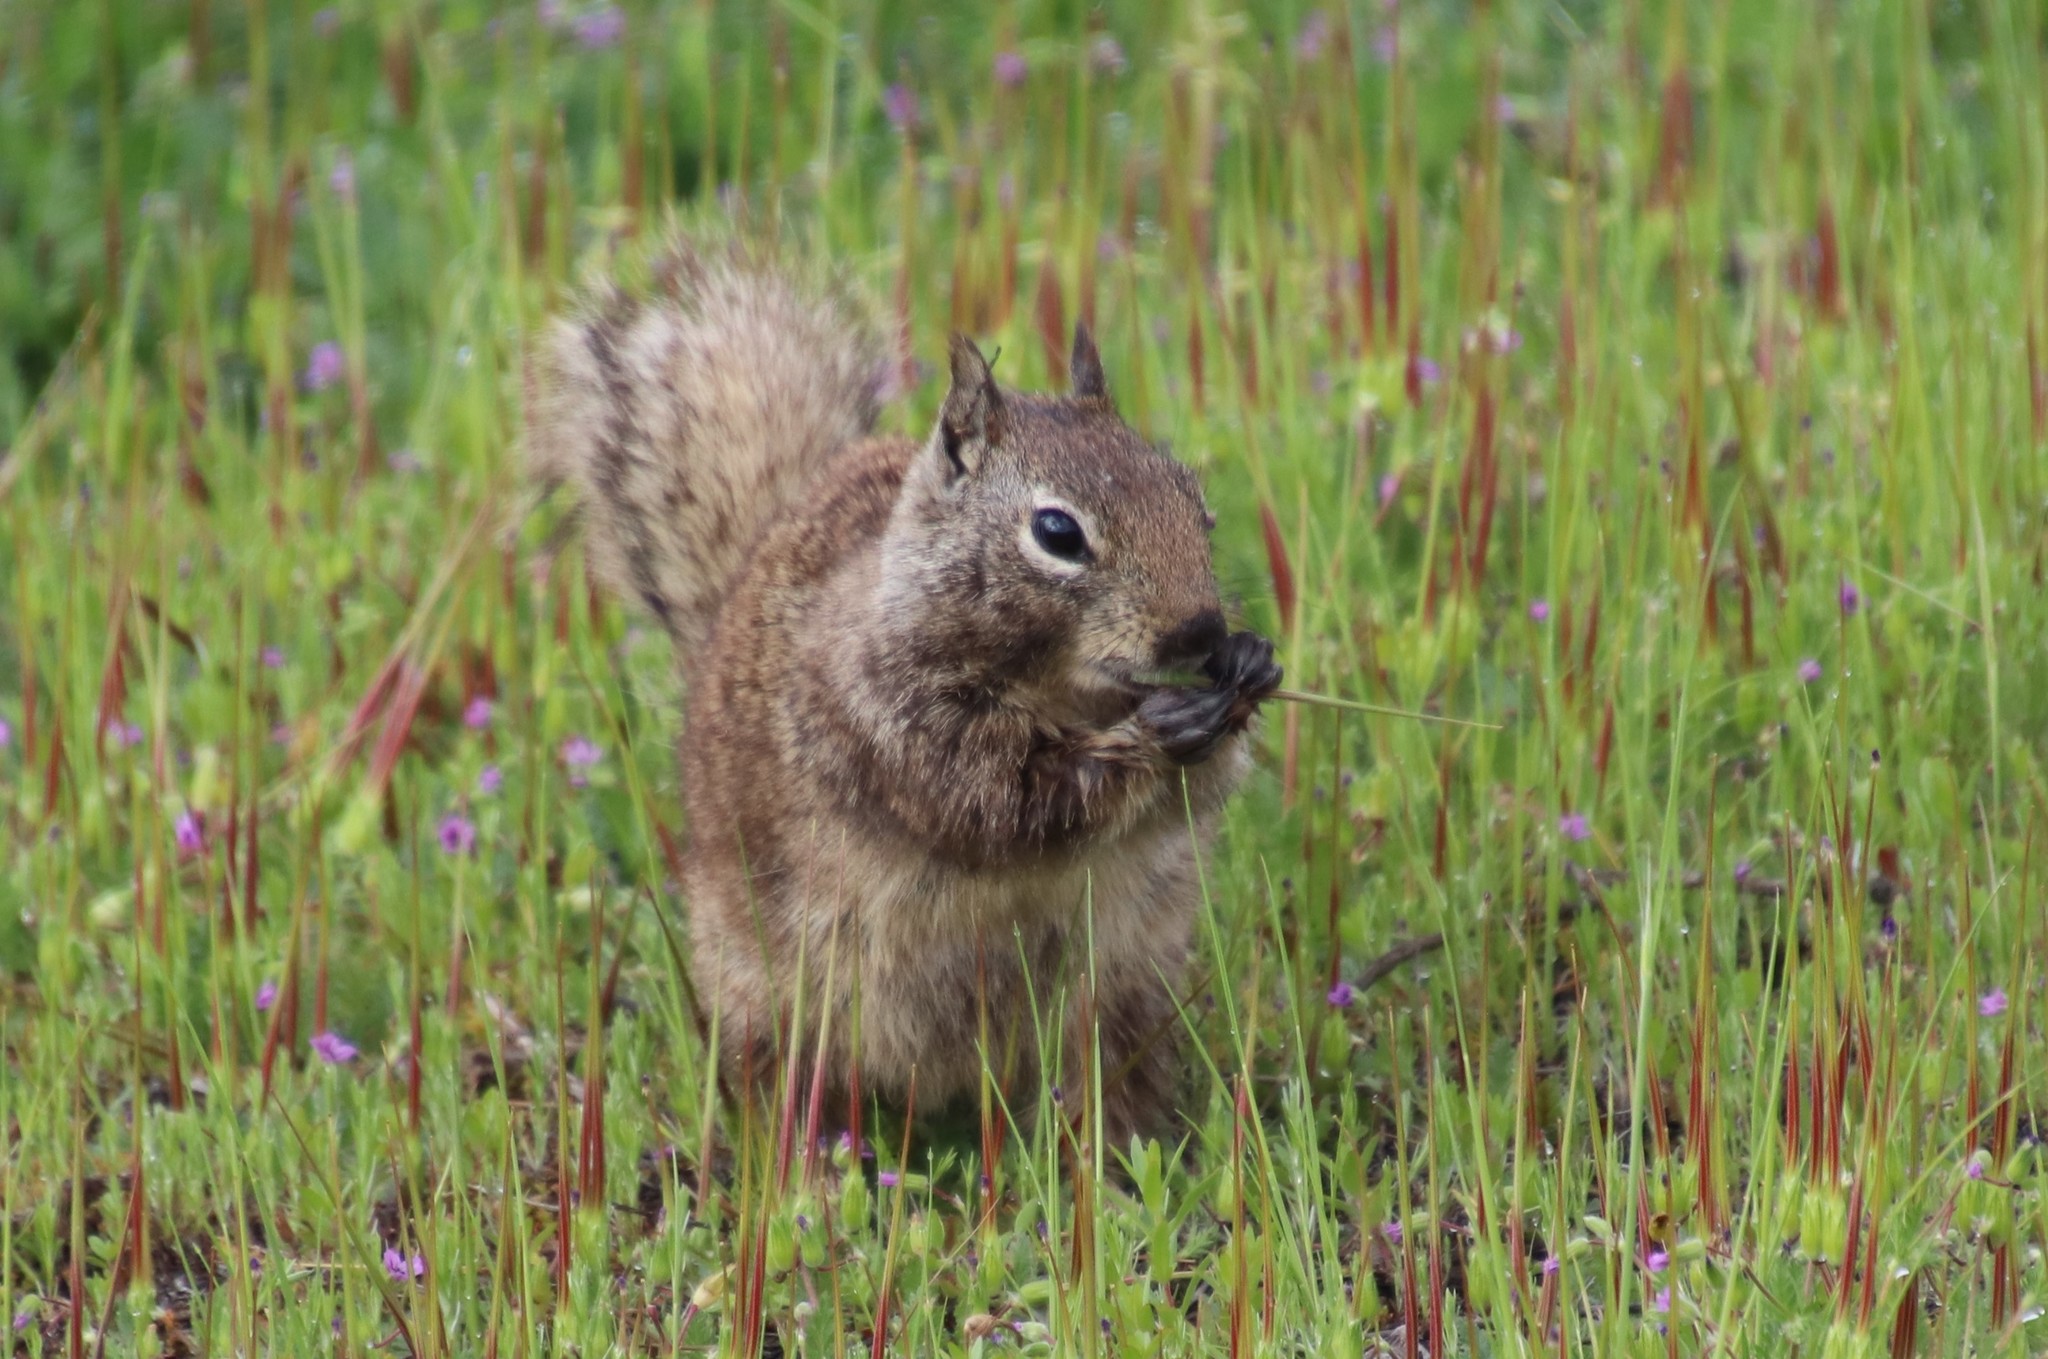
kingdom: Animalia
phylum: Chordata
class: Mammalia
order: Rodentia
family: Sciuridae
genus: Otospermophilus
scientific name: Otospermophilus beecheyi
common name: California ground squirrel
